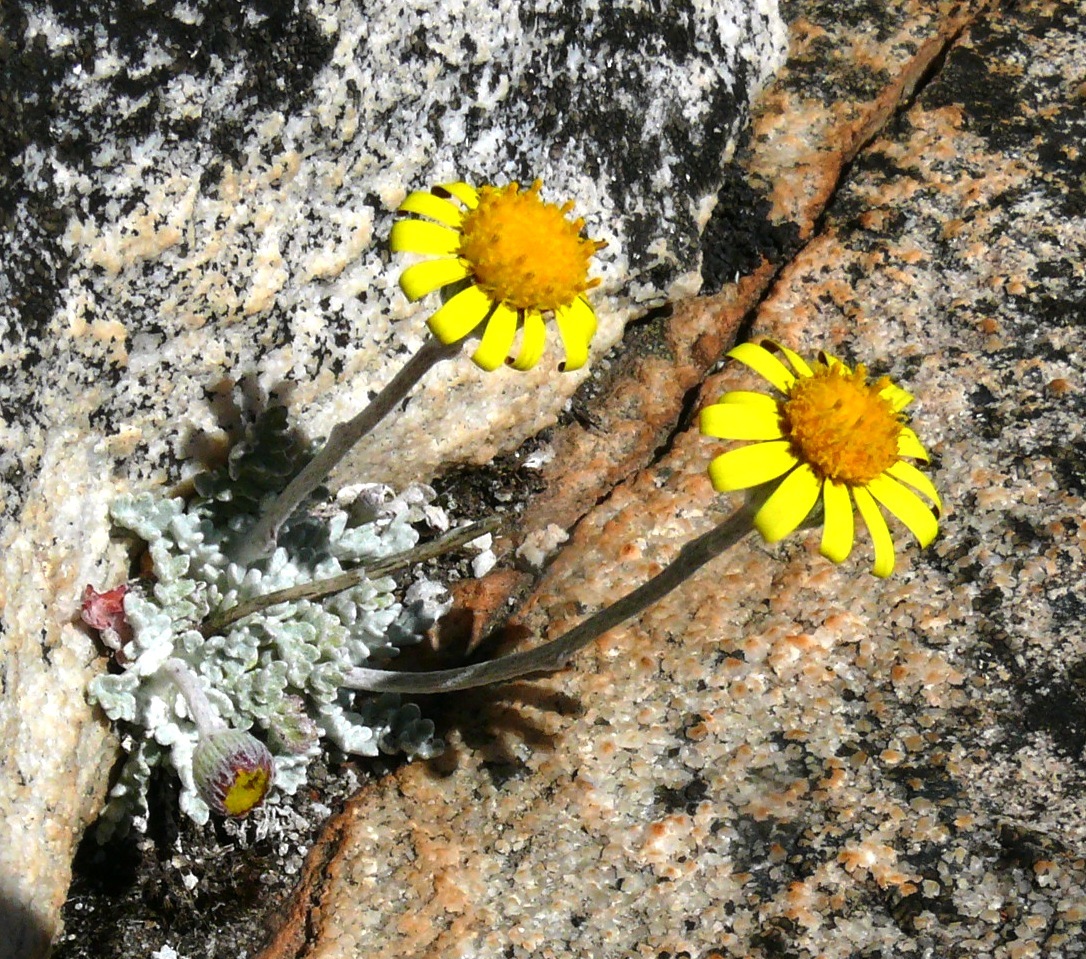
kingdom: Plantae
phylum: Tracheophyta
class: Magnoliopsida
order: Asterales
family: Asteraceae
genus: Senecio
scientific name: Senecio albifolius
